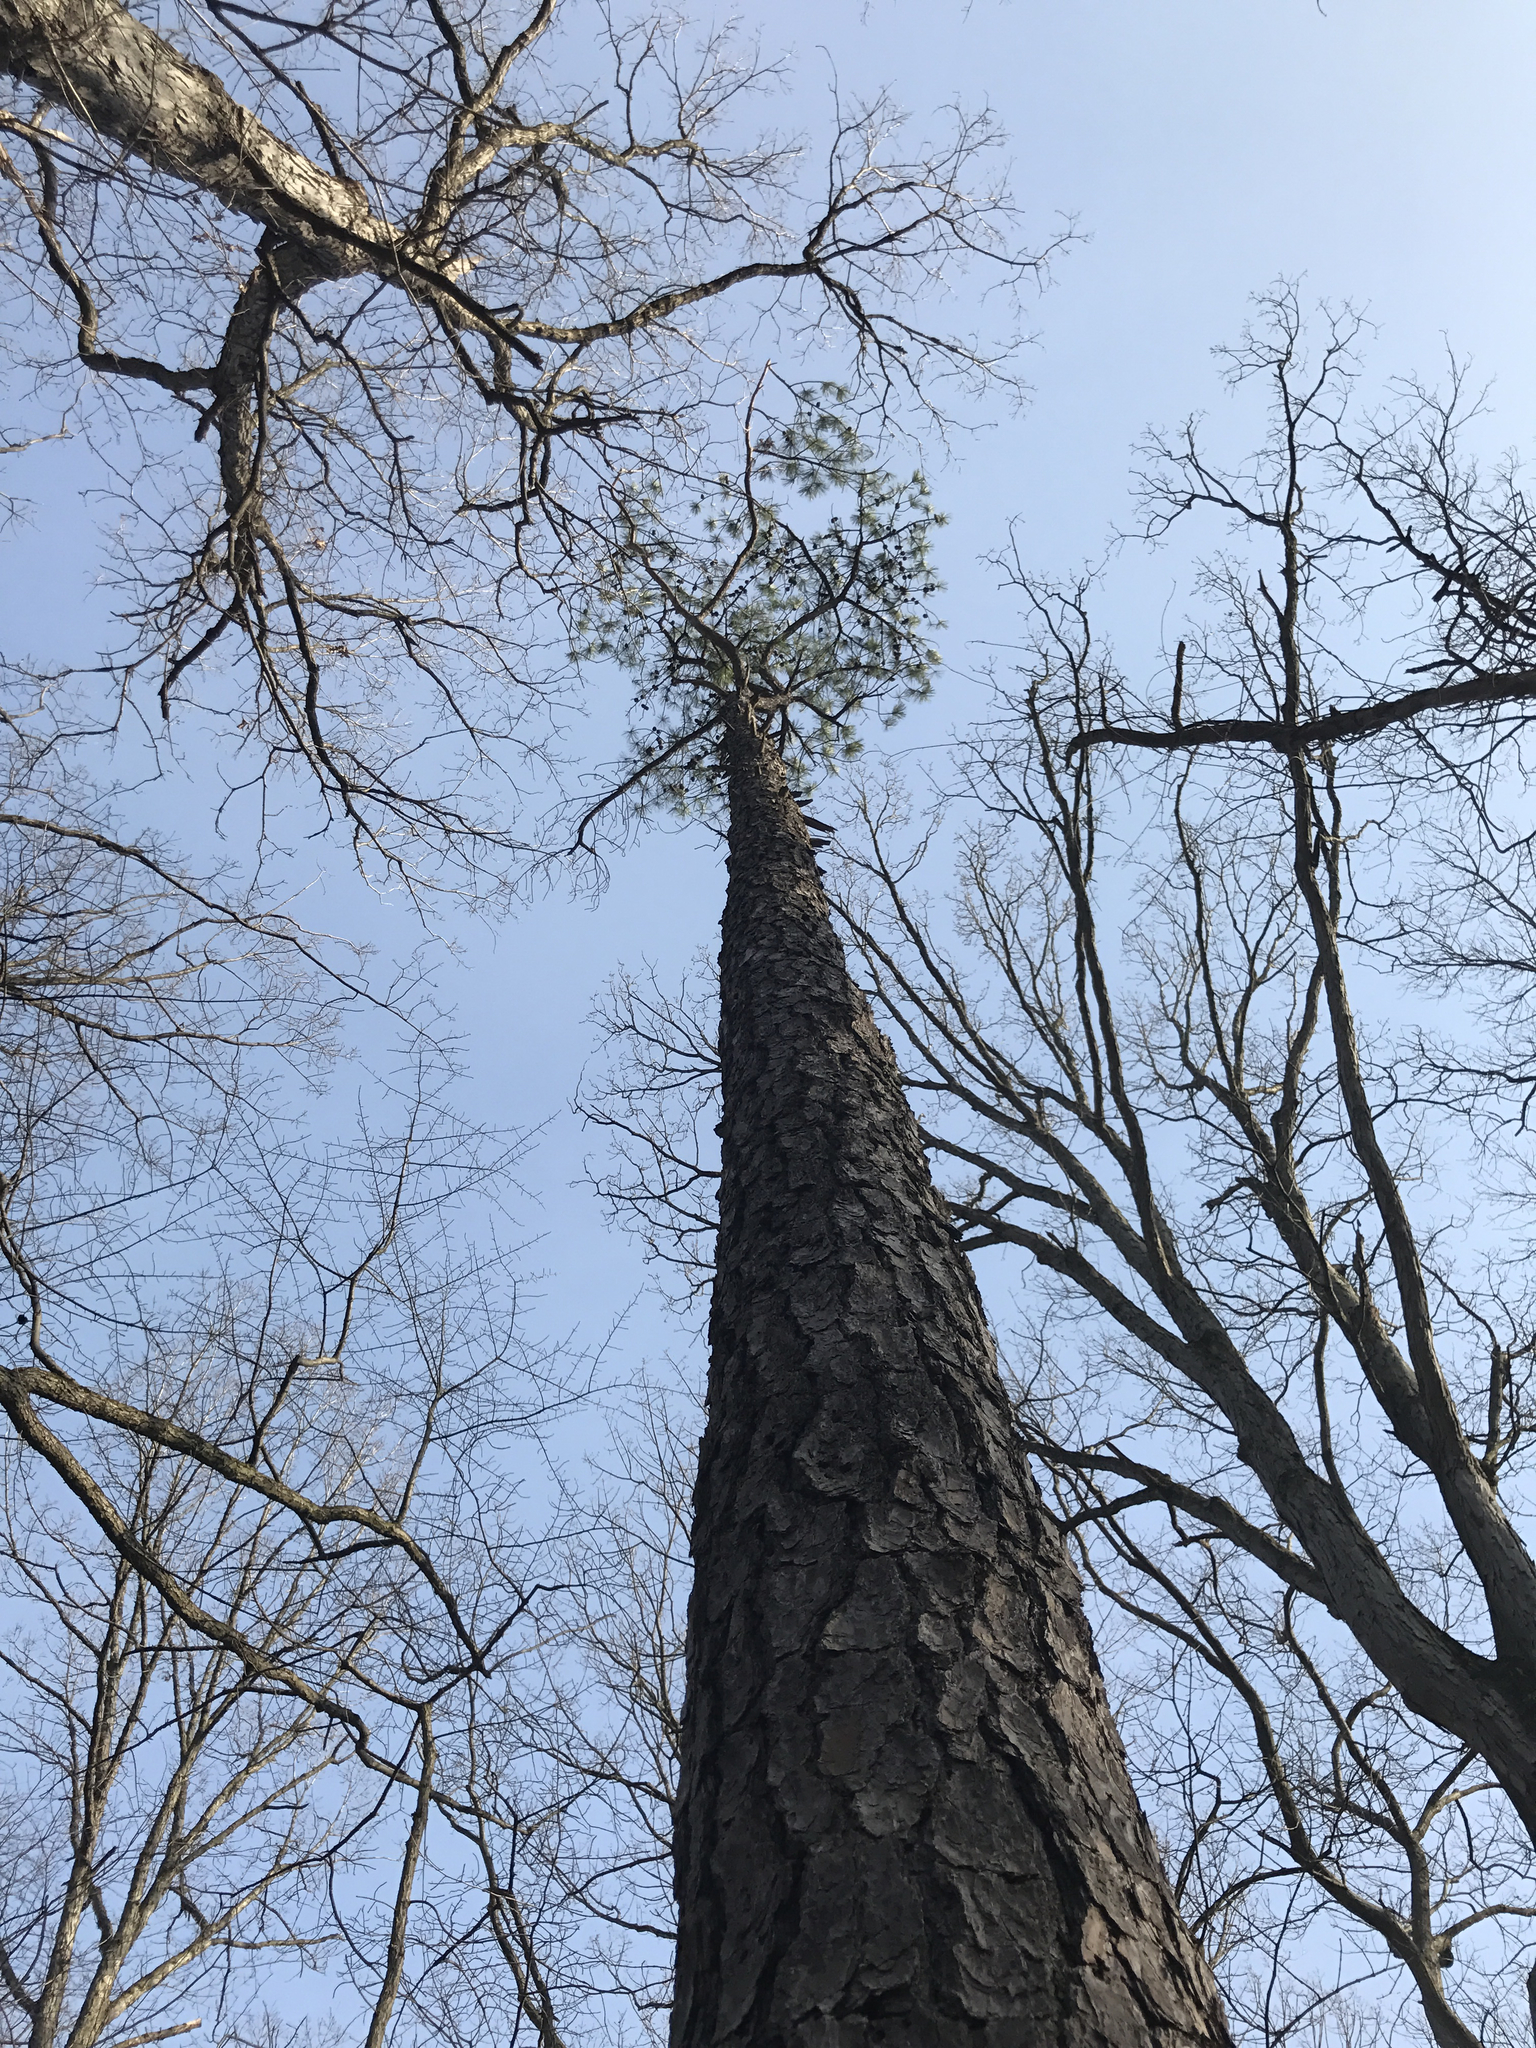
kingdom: Plantae
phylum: Tracheophyta
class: Pinopsida
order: Pinales
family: Pinaceae
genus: Pinus
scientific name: Pinus rigida
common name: Pitch pine
